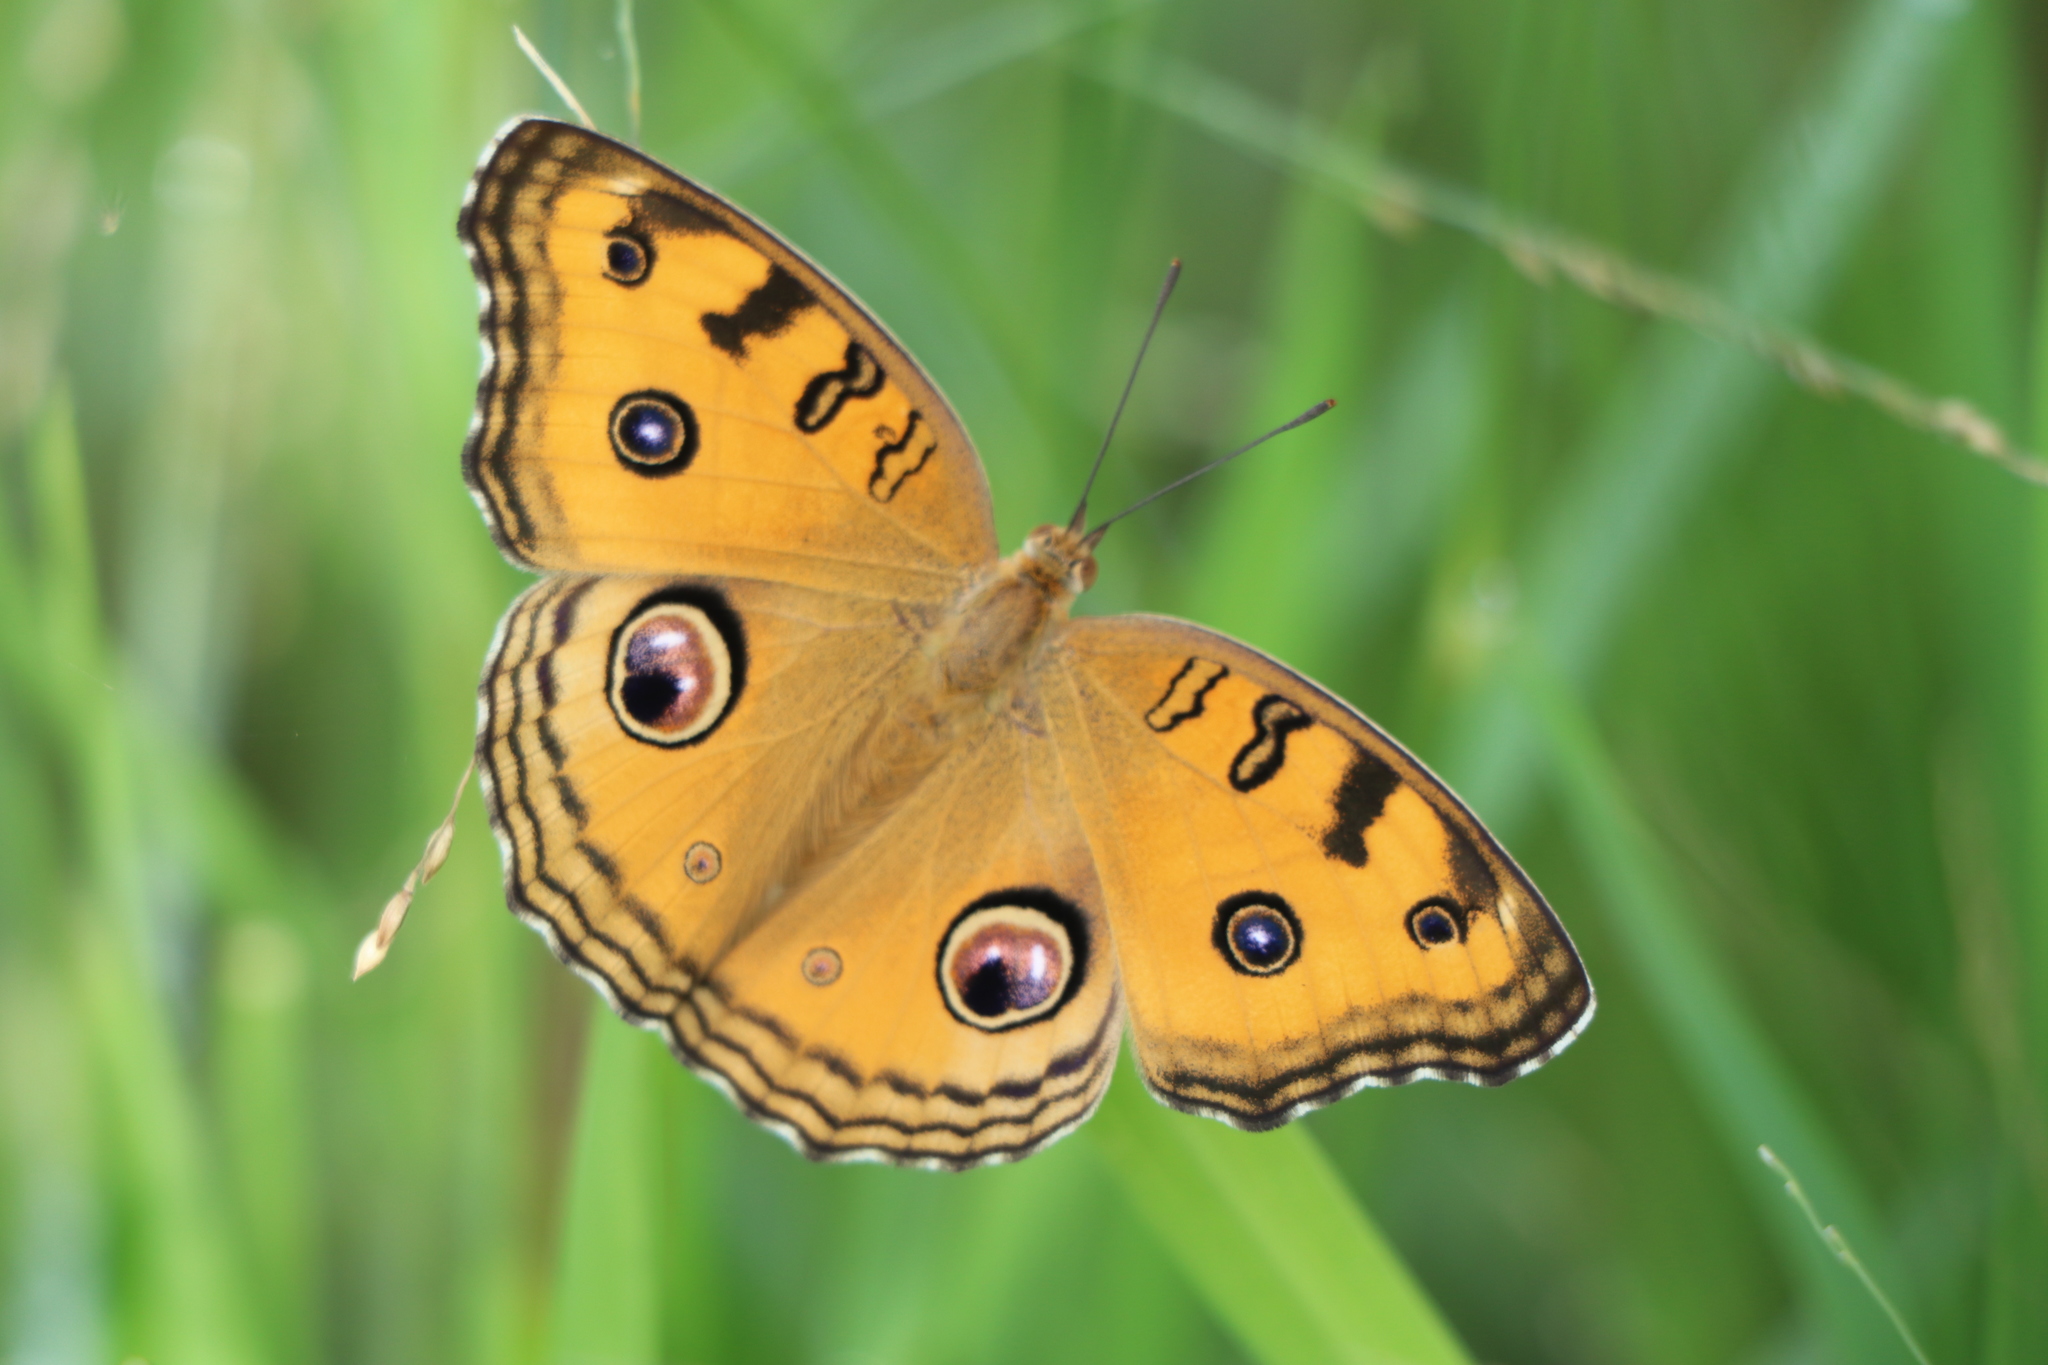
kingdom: Animalia
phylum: Arthropoda
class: Insecta
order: Lepidoptera
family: Nymphalidae
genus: Junonia
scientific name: Junonia almana
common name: Peacock pansy
